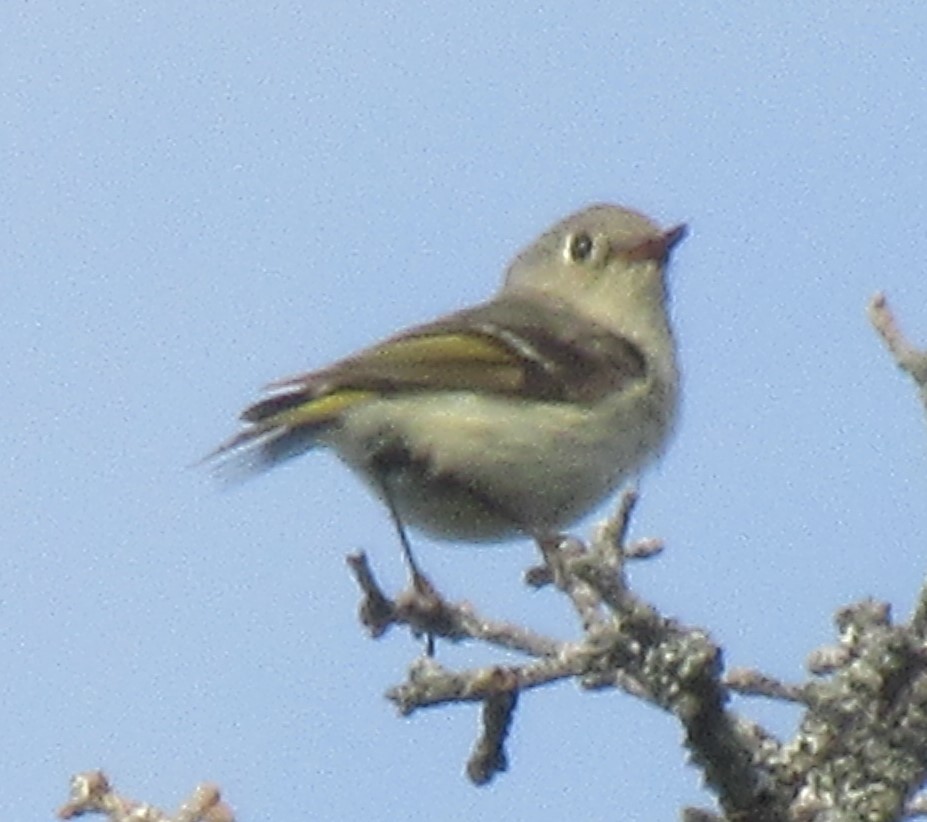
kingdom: Animalia
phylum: Chordata
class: Aves
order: Passeriformes
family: Regulidae
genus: Regulus
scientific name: Regulus calendula
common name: Ruby-crowned kinglet
